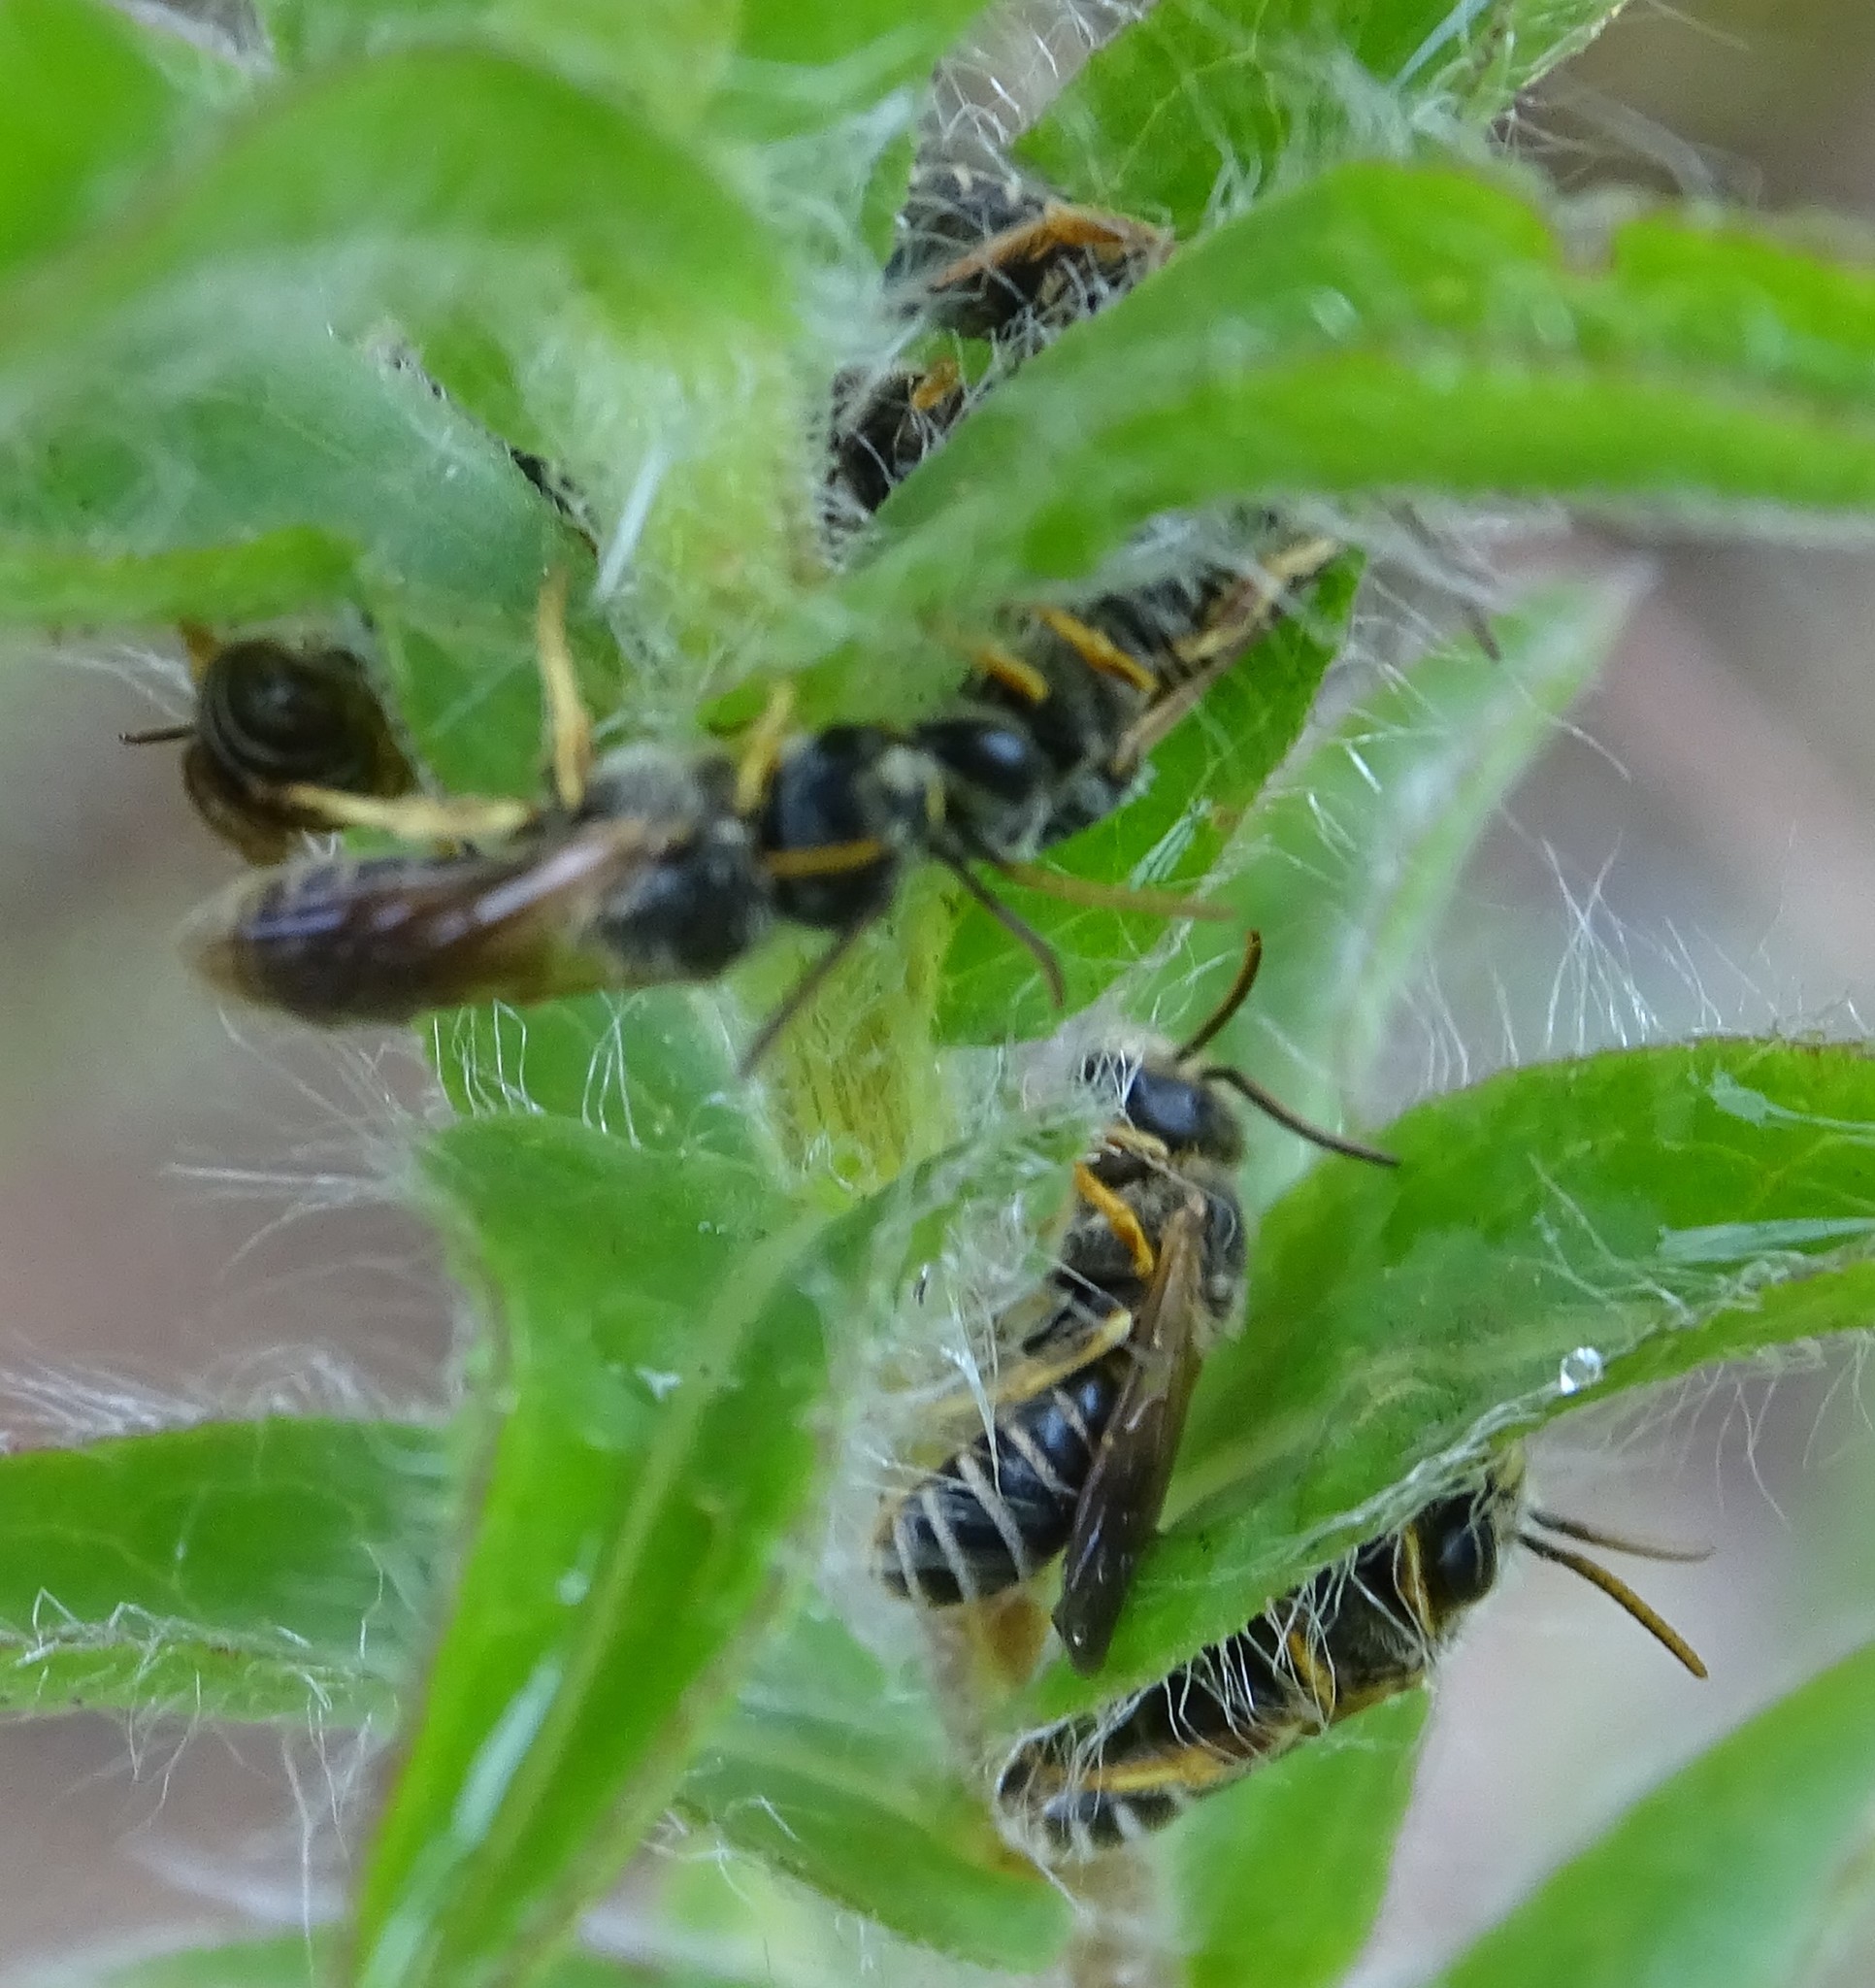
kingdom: Animalia
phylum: Arthropoda
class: Insecta
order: Hymenoptera
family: Halictidae
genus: Halictus
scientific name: Halictus poeyi
